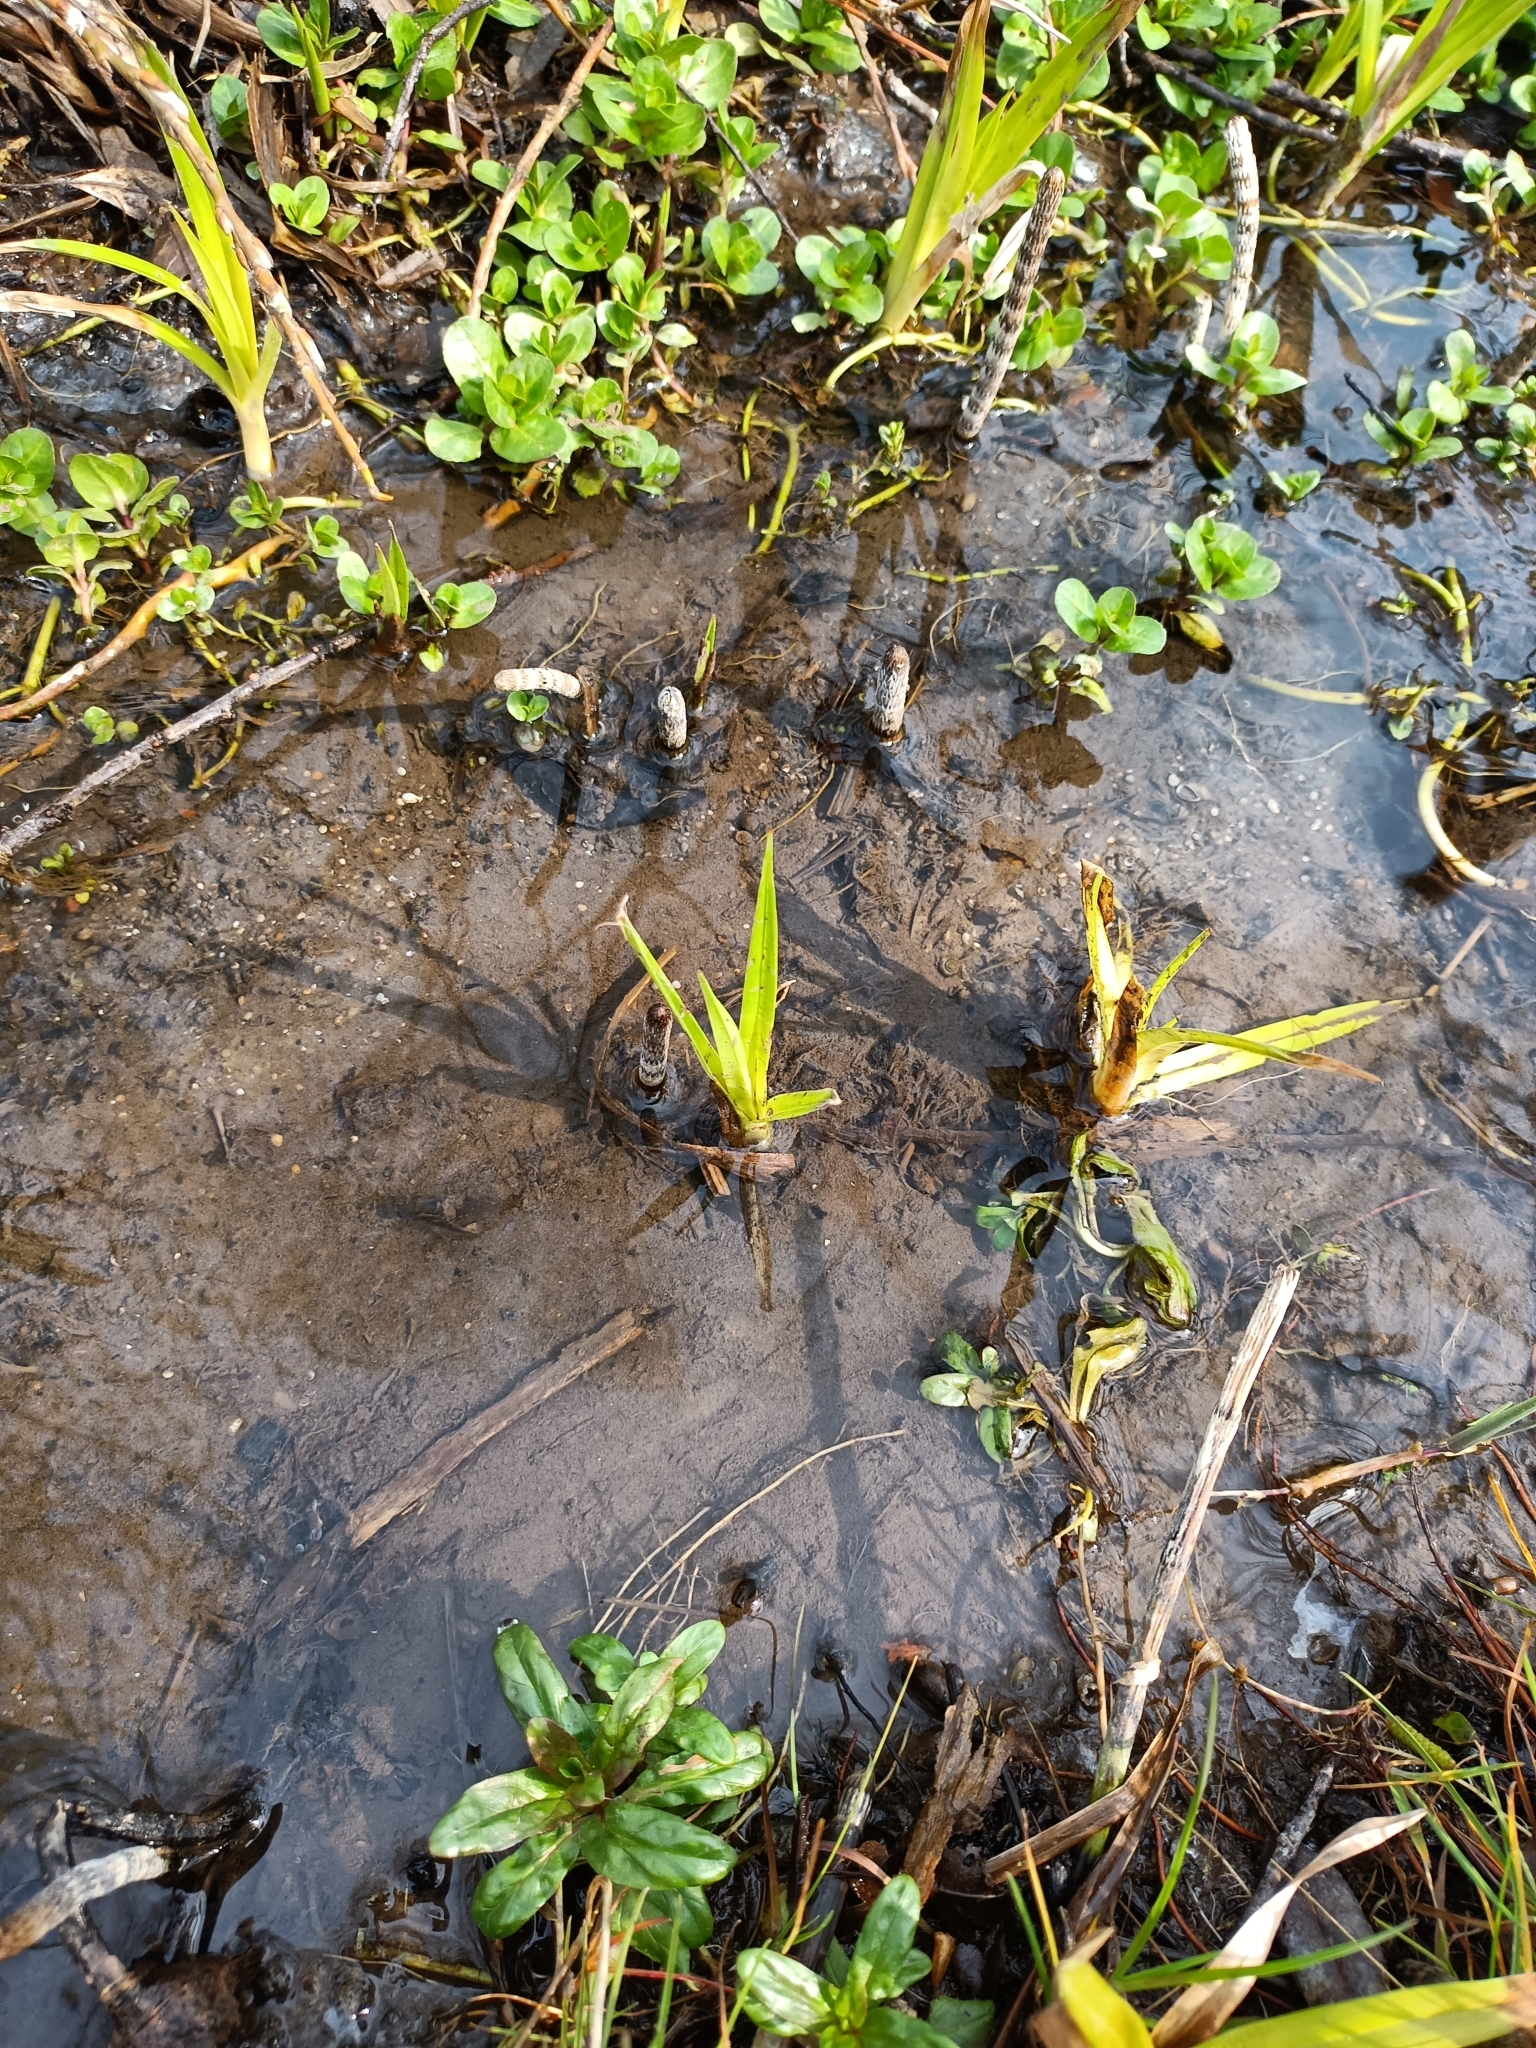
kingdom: Plantae
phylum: Tracheophyta
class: Liliopsida
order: Poales
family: Cyperaceae
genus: Scirpus
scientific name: Scirpus sylvaticus
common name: Wood club-rush
